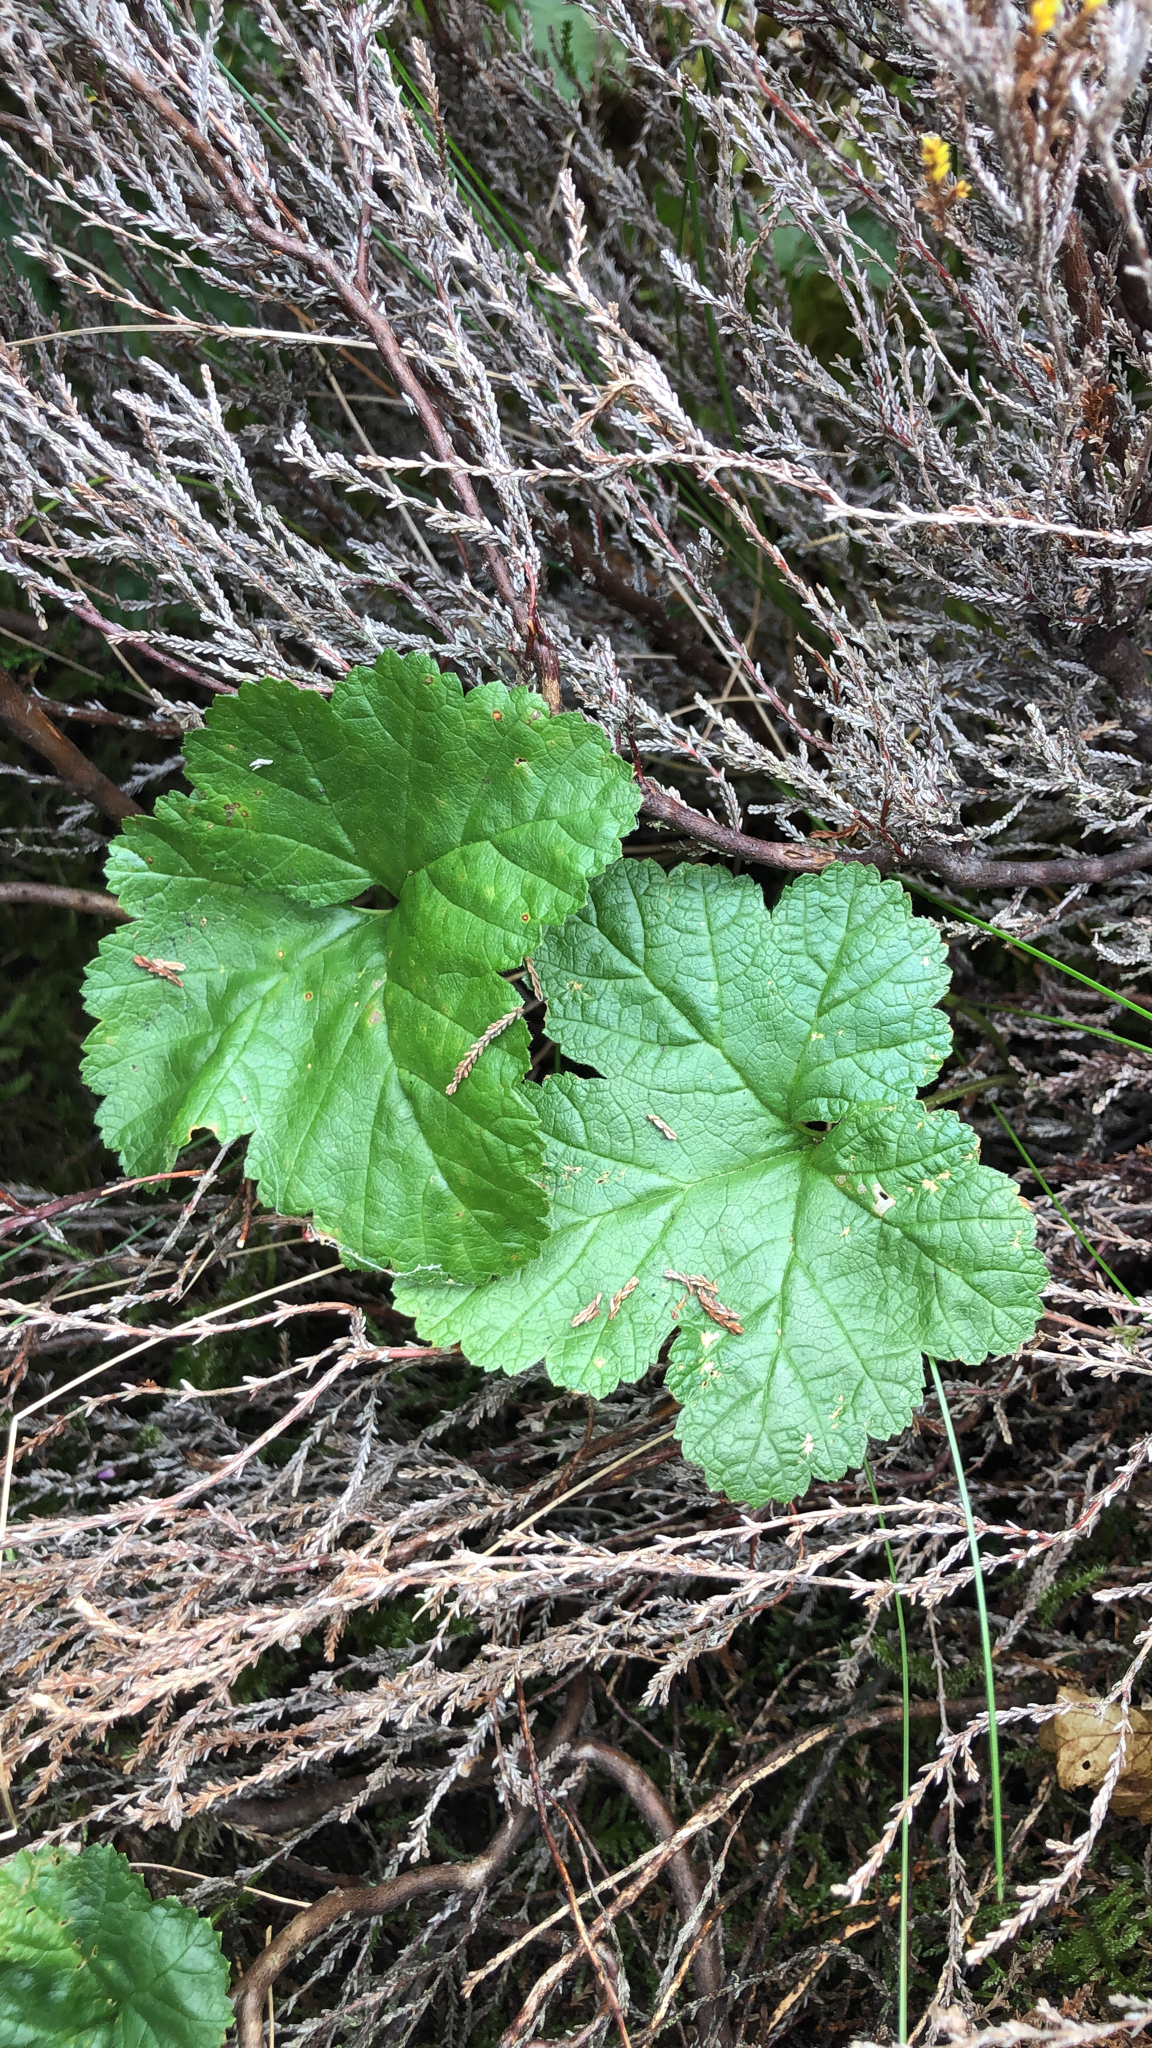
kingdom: Plantae
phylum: Tracheophyta
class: Magnoliopsida
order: Rosales
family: Rosaceae
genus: Rubus
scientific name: Rubus chamaemorus
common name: Cloudberry
